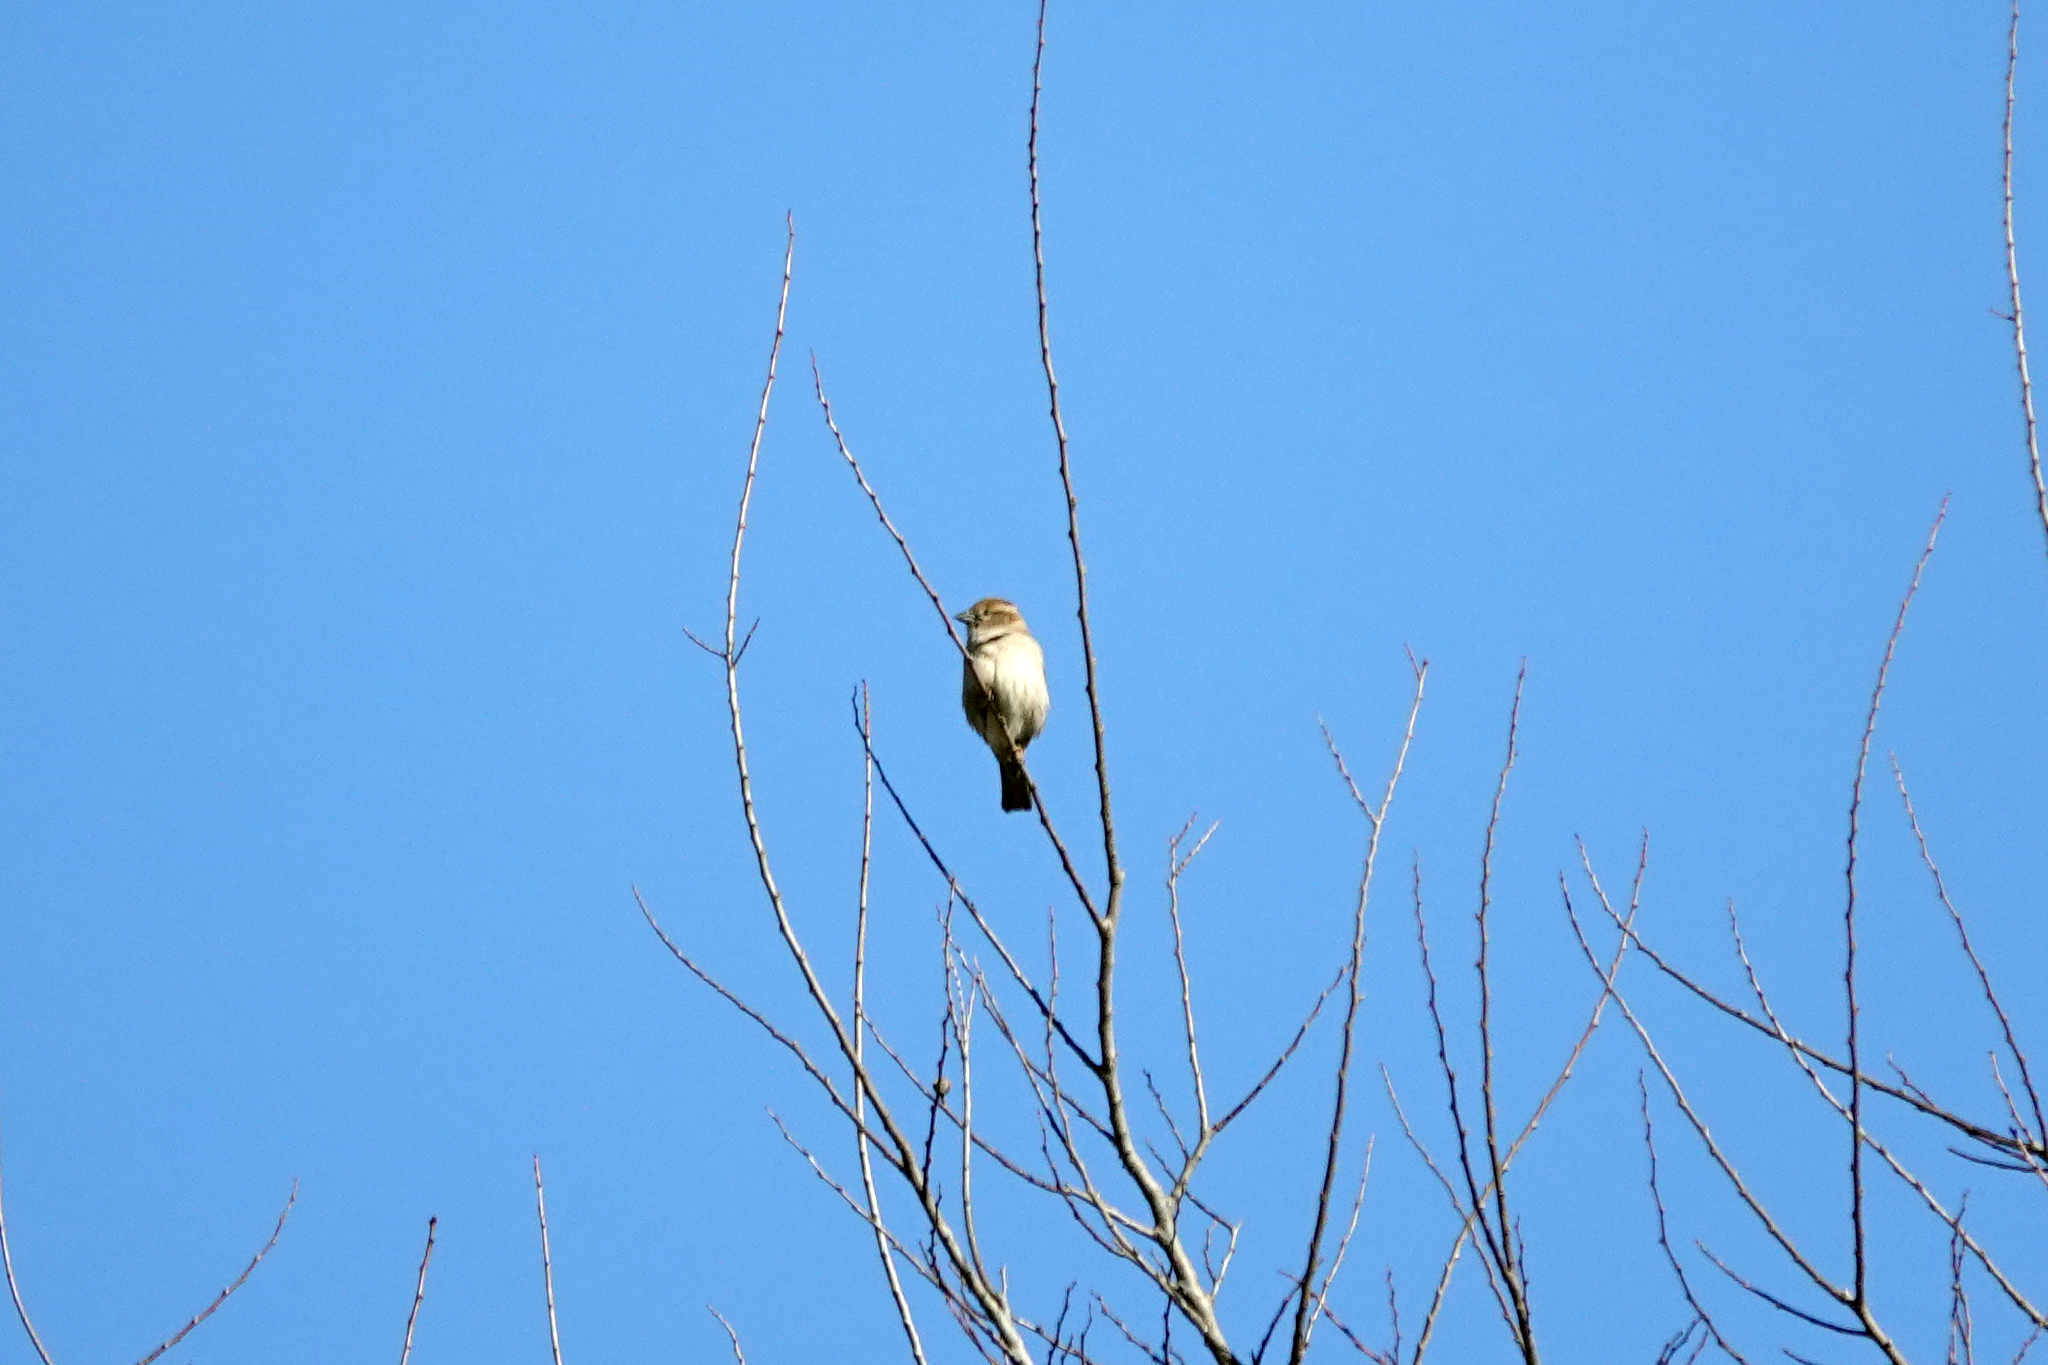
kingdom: Animalia
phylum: Chordata
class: Aves
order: Passeriformes
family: Passeridae
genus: Passer
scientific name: Passer domesticus
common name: House sparrow
